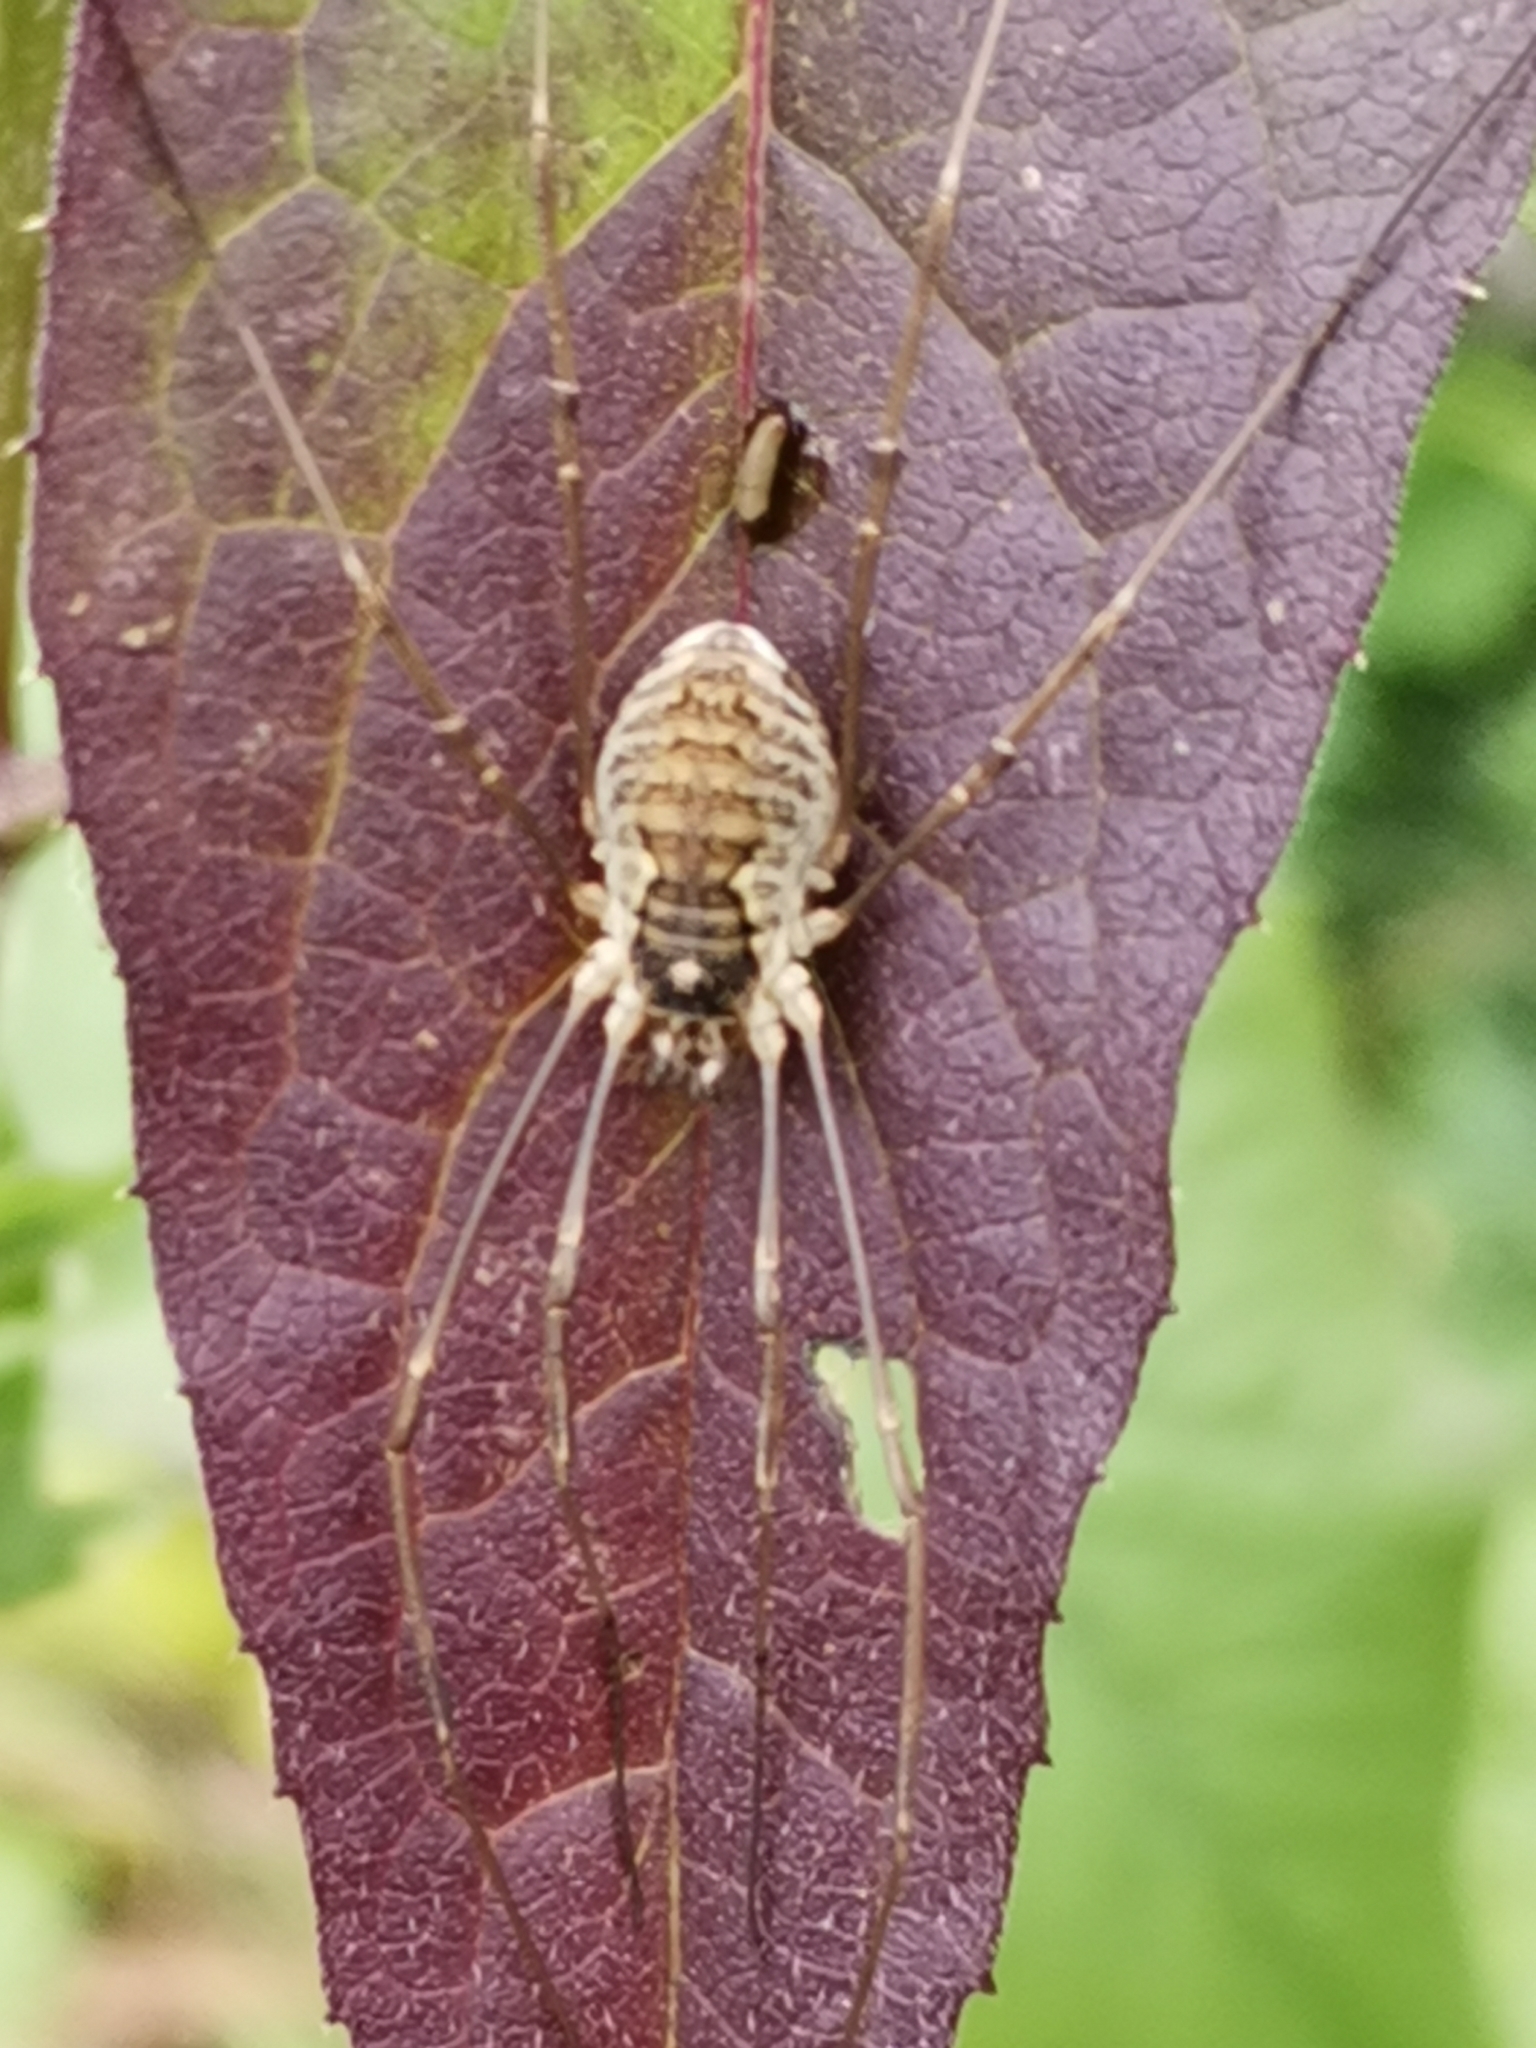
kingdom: Animalia
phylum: Arthropoda
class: Arachnida
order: Opiliones
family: Phalangiidae
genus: Mitopus
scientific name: Mitopus morio
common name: Saddleback harvestman
